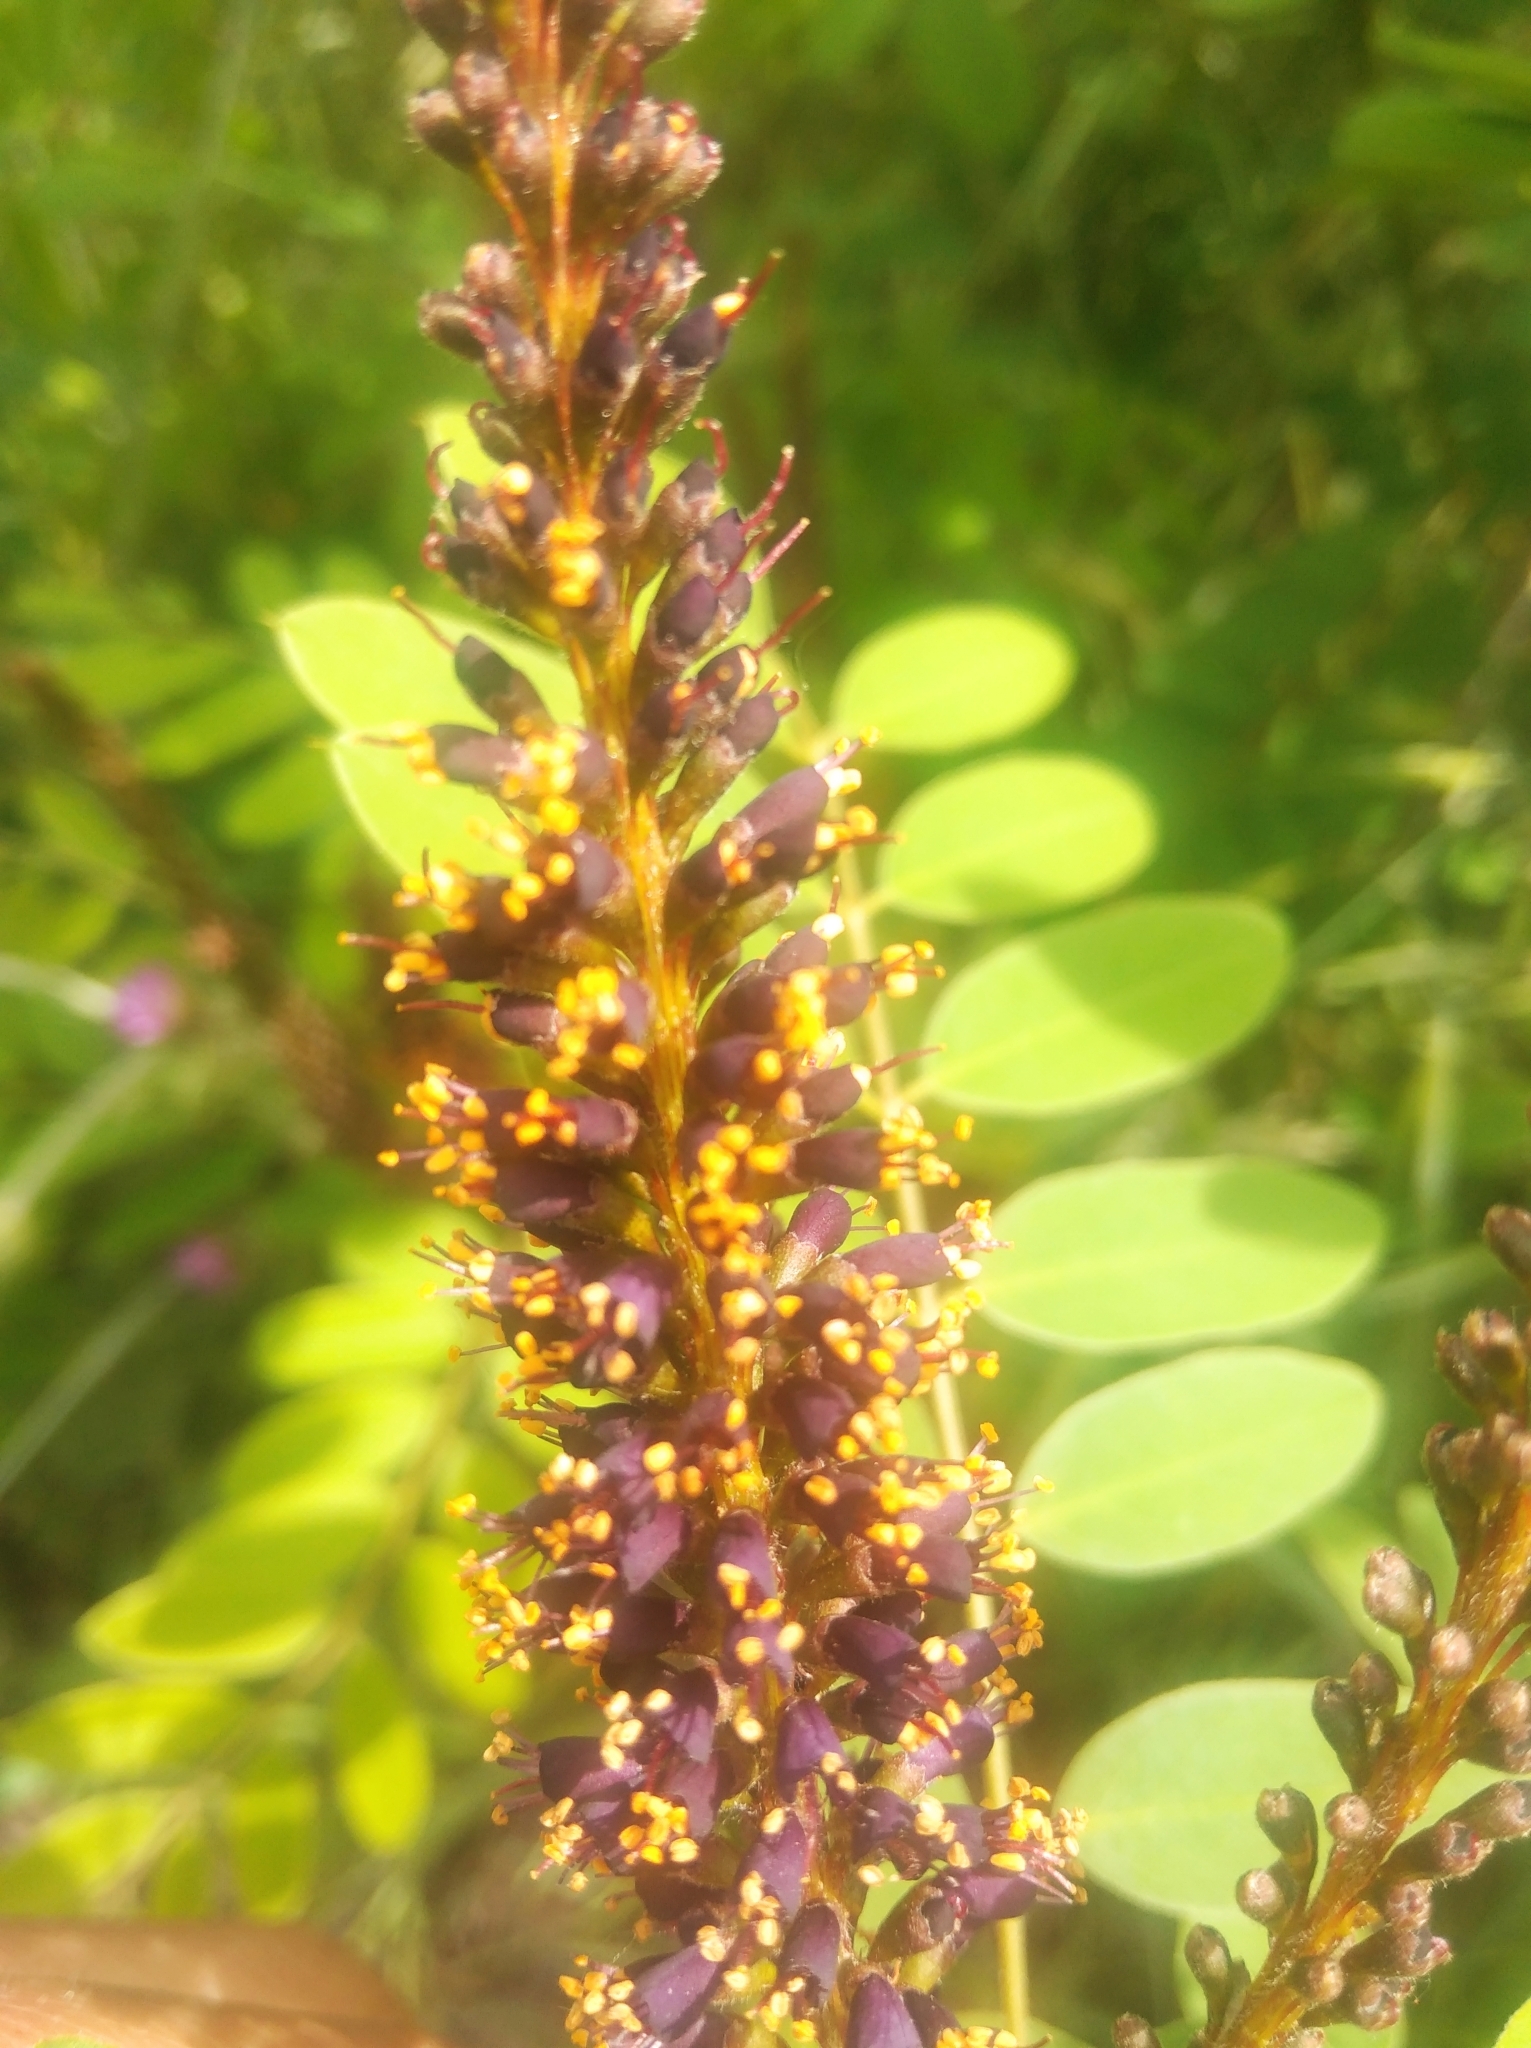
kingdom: Plantae
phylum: Tracheophyta
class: Magnoliopsida
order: Fabales
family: Fabaceae
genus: Amorpha
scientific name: Amorpha fruticosa
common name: False indigo
